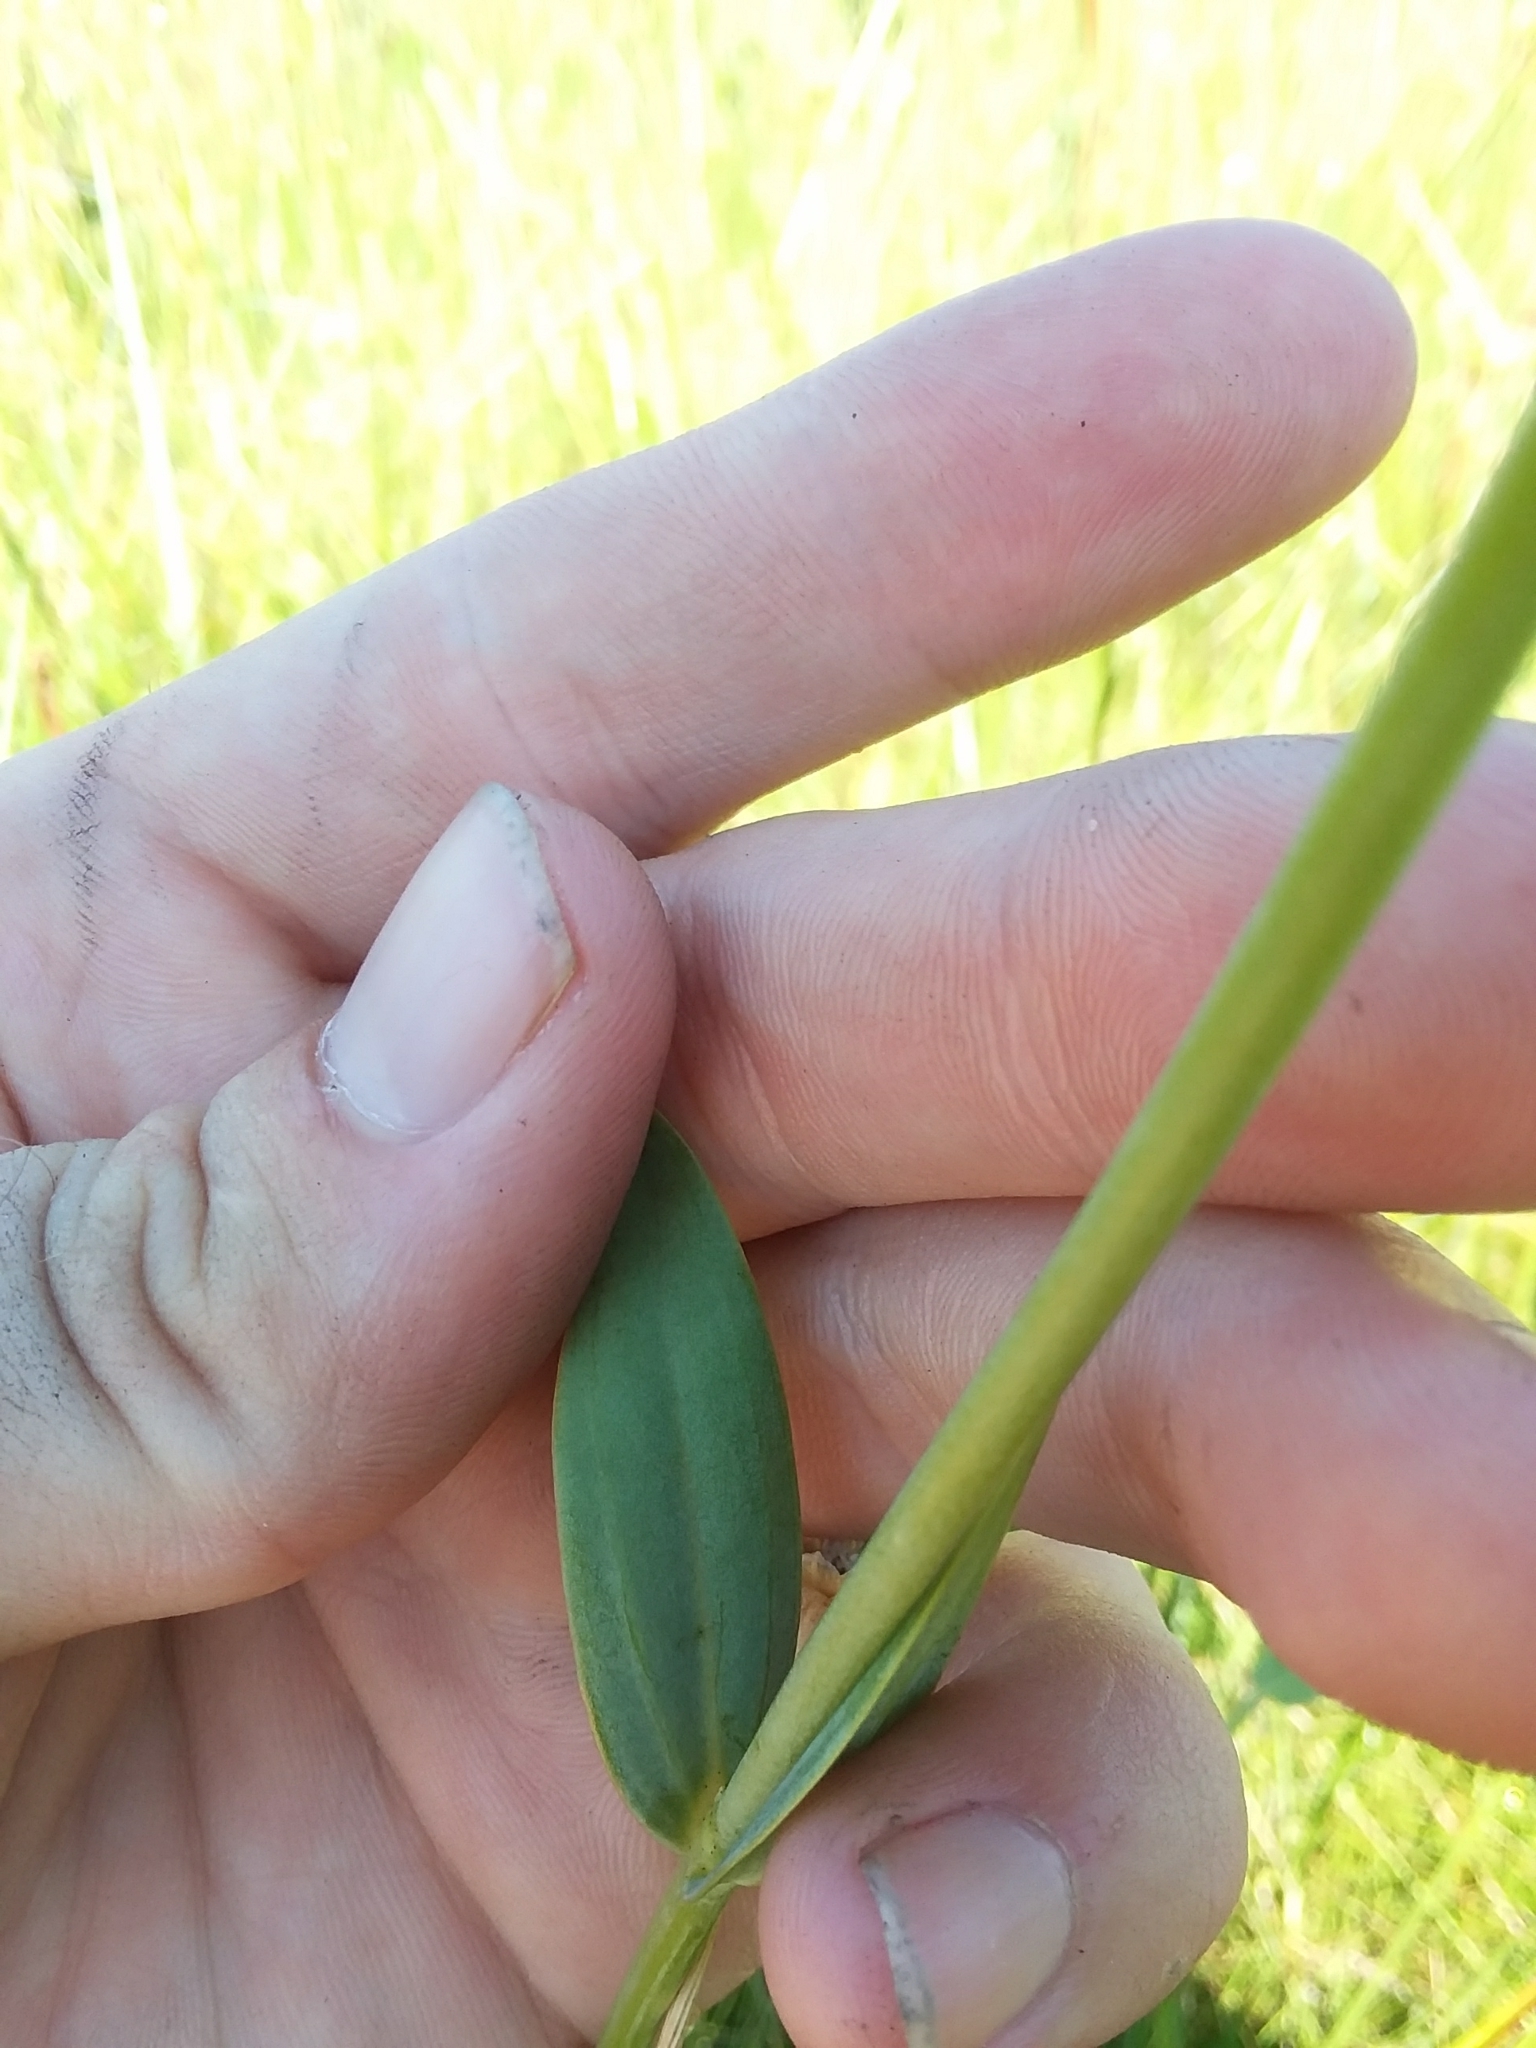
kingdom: Plantae
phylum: Tracheophyta
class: Magnoliopsida
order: Gentianales
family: Gentianaceae
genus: Sabatia
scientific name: Sabatia macrophylla
